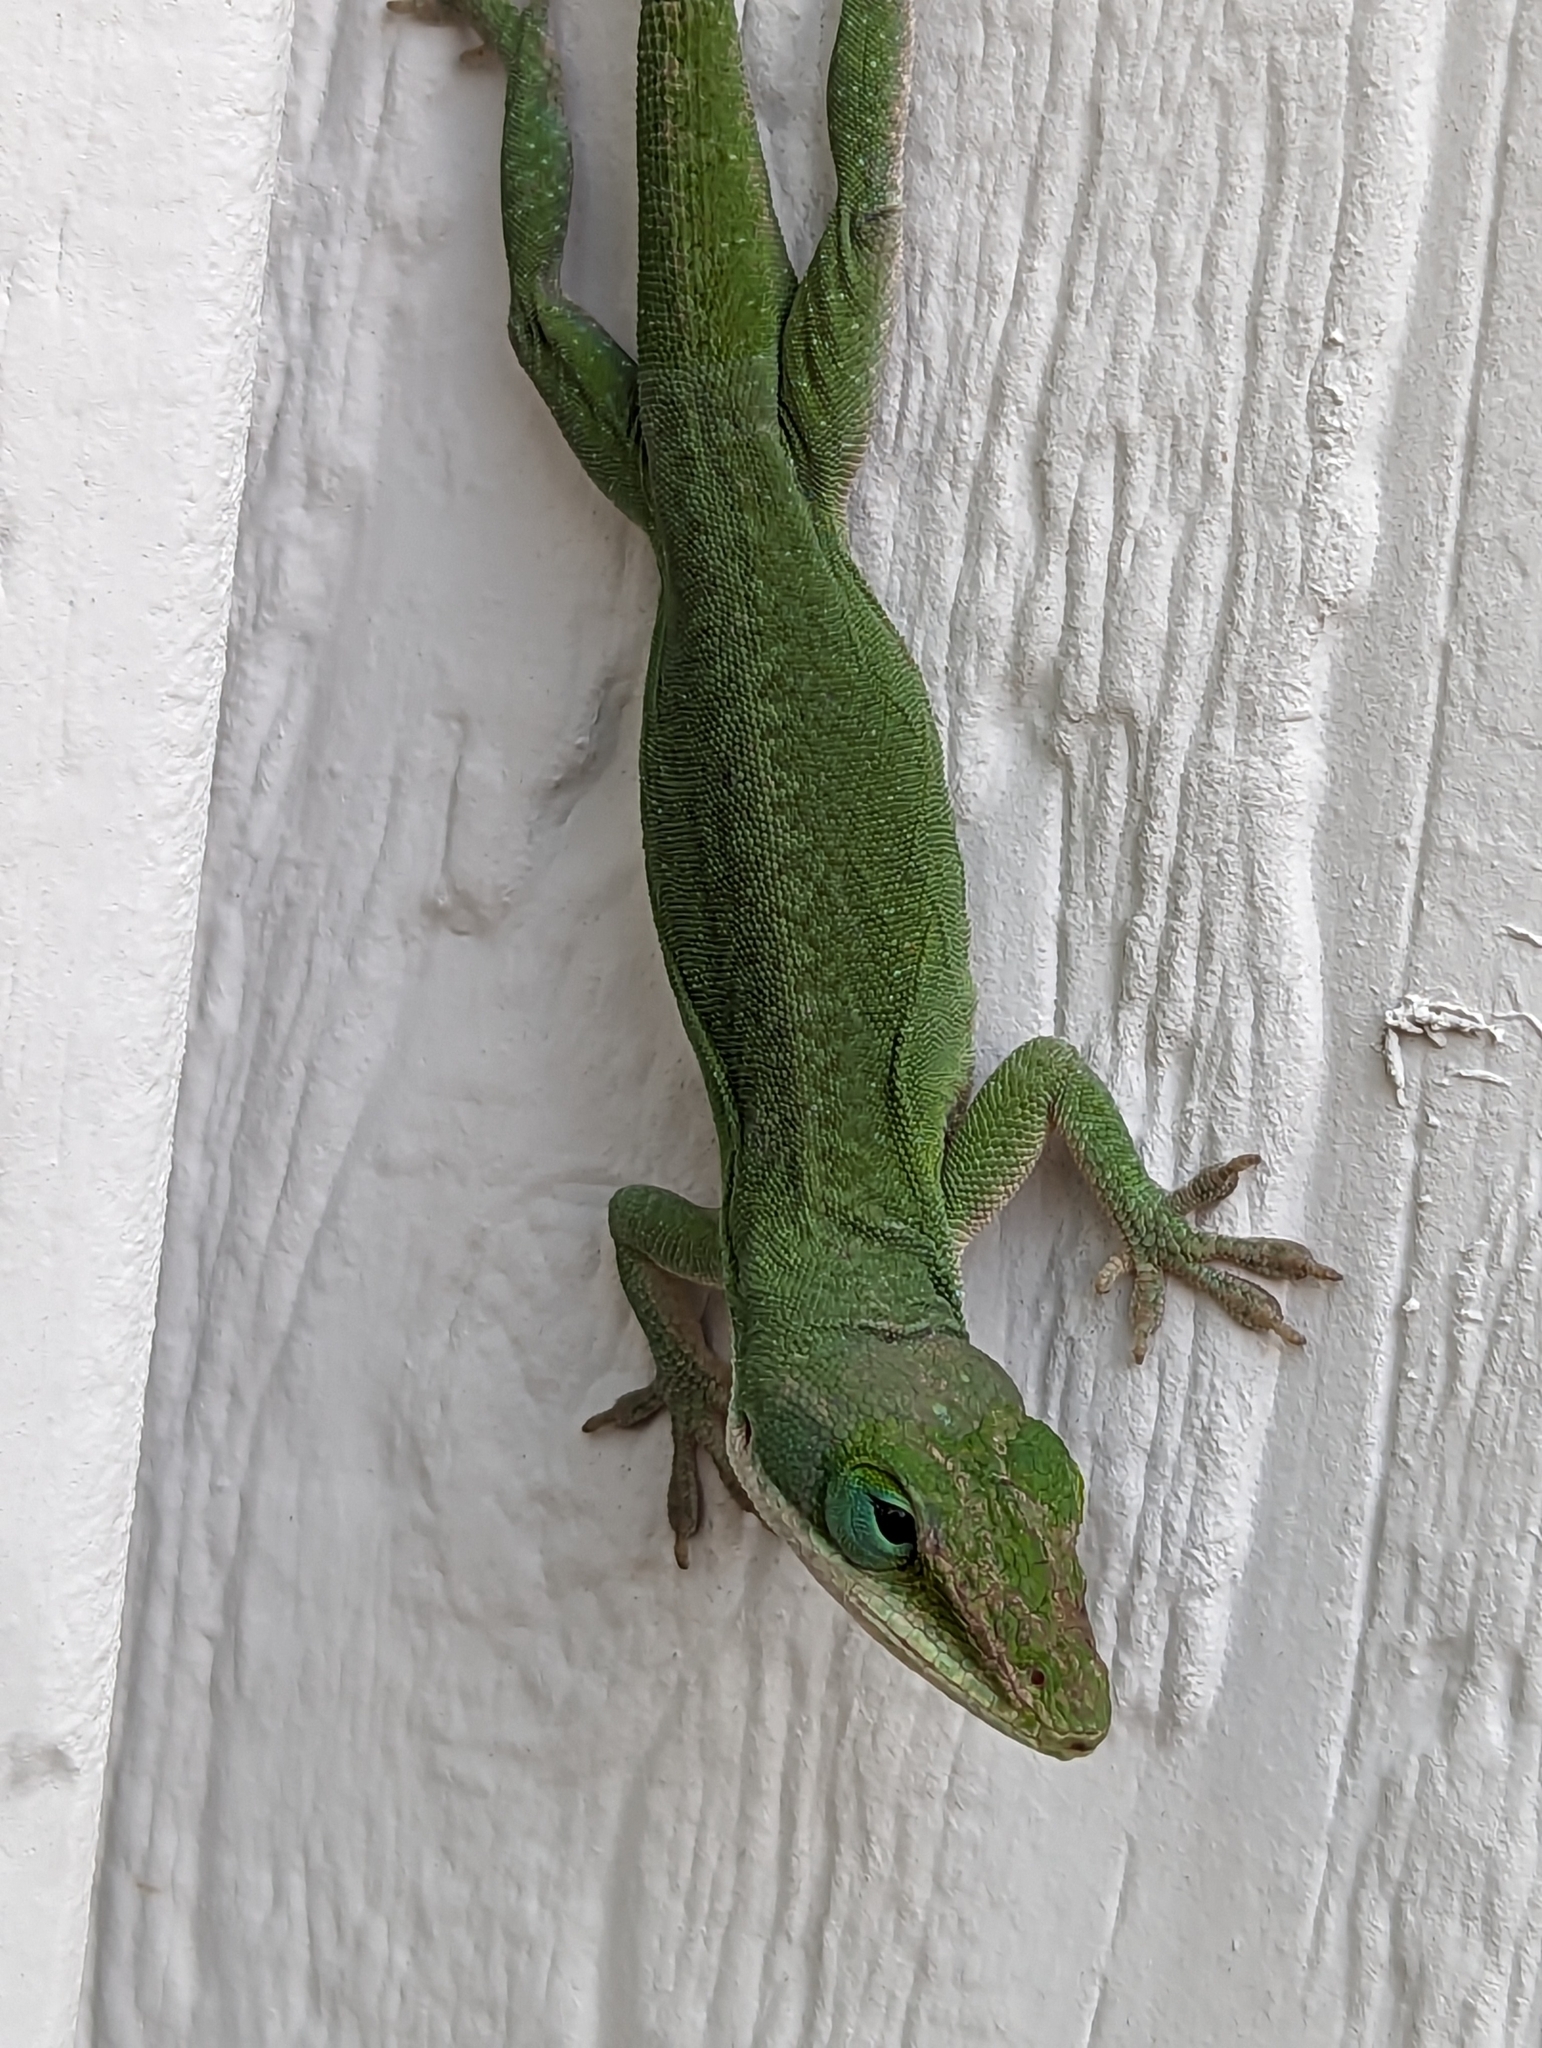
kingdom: Animalia
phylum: Chordata
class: Squamata
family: Dactyloidae
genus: Anolis
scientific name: Anolis carolinensis
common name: Green anole
